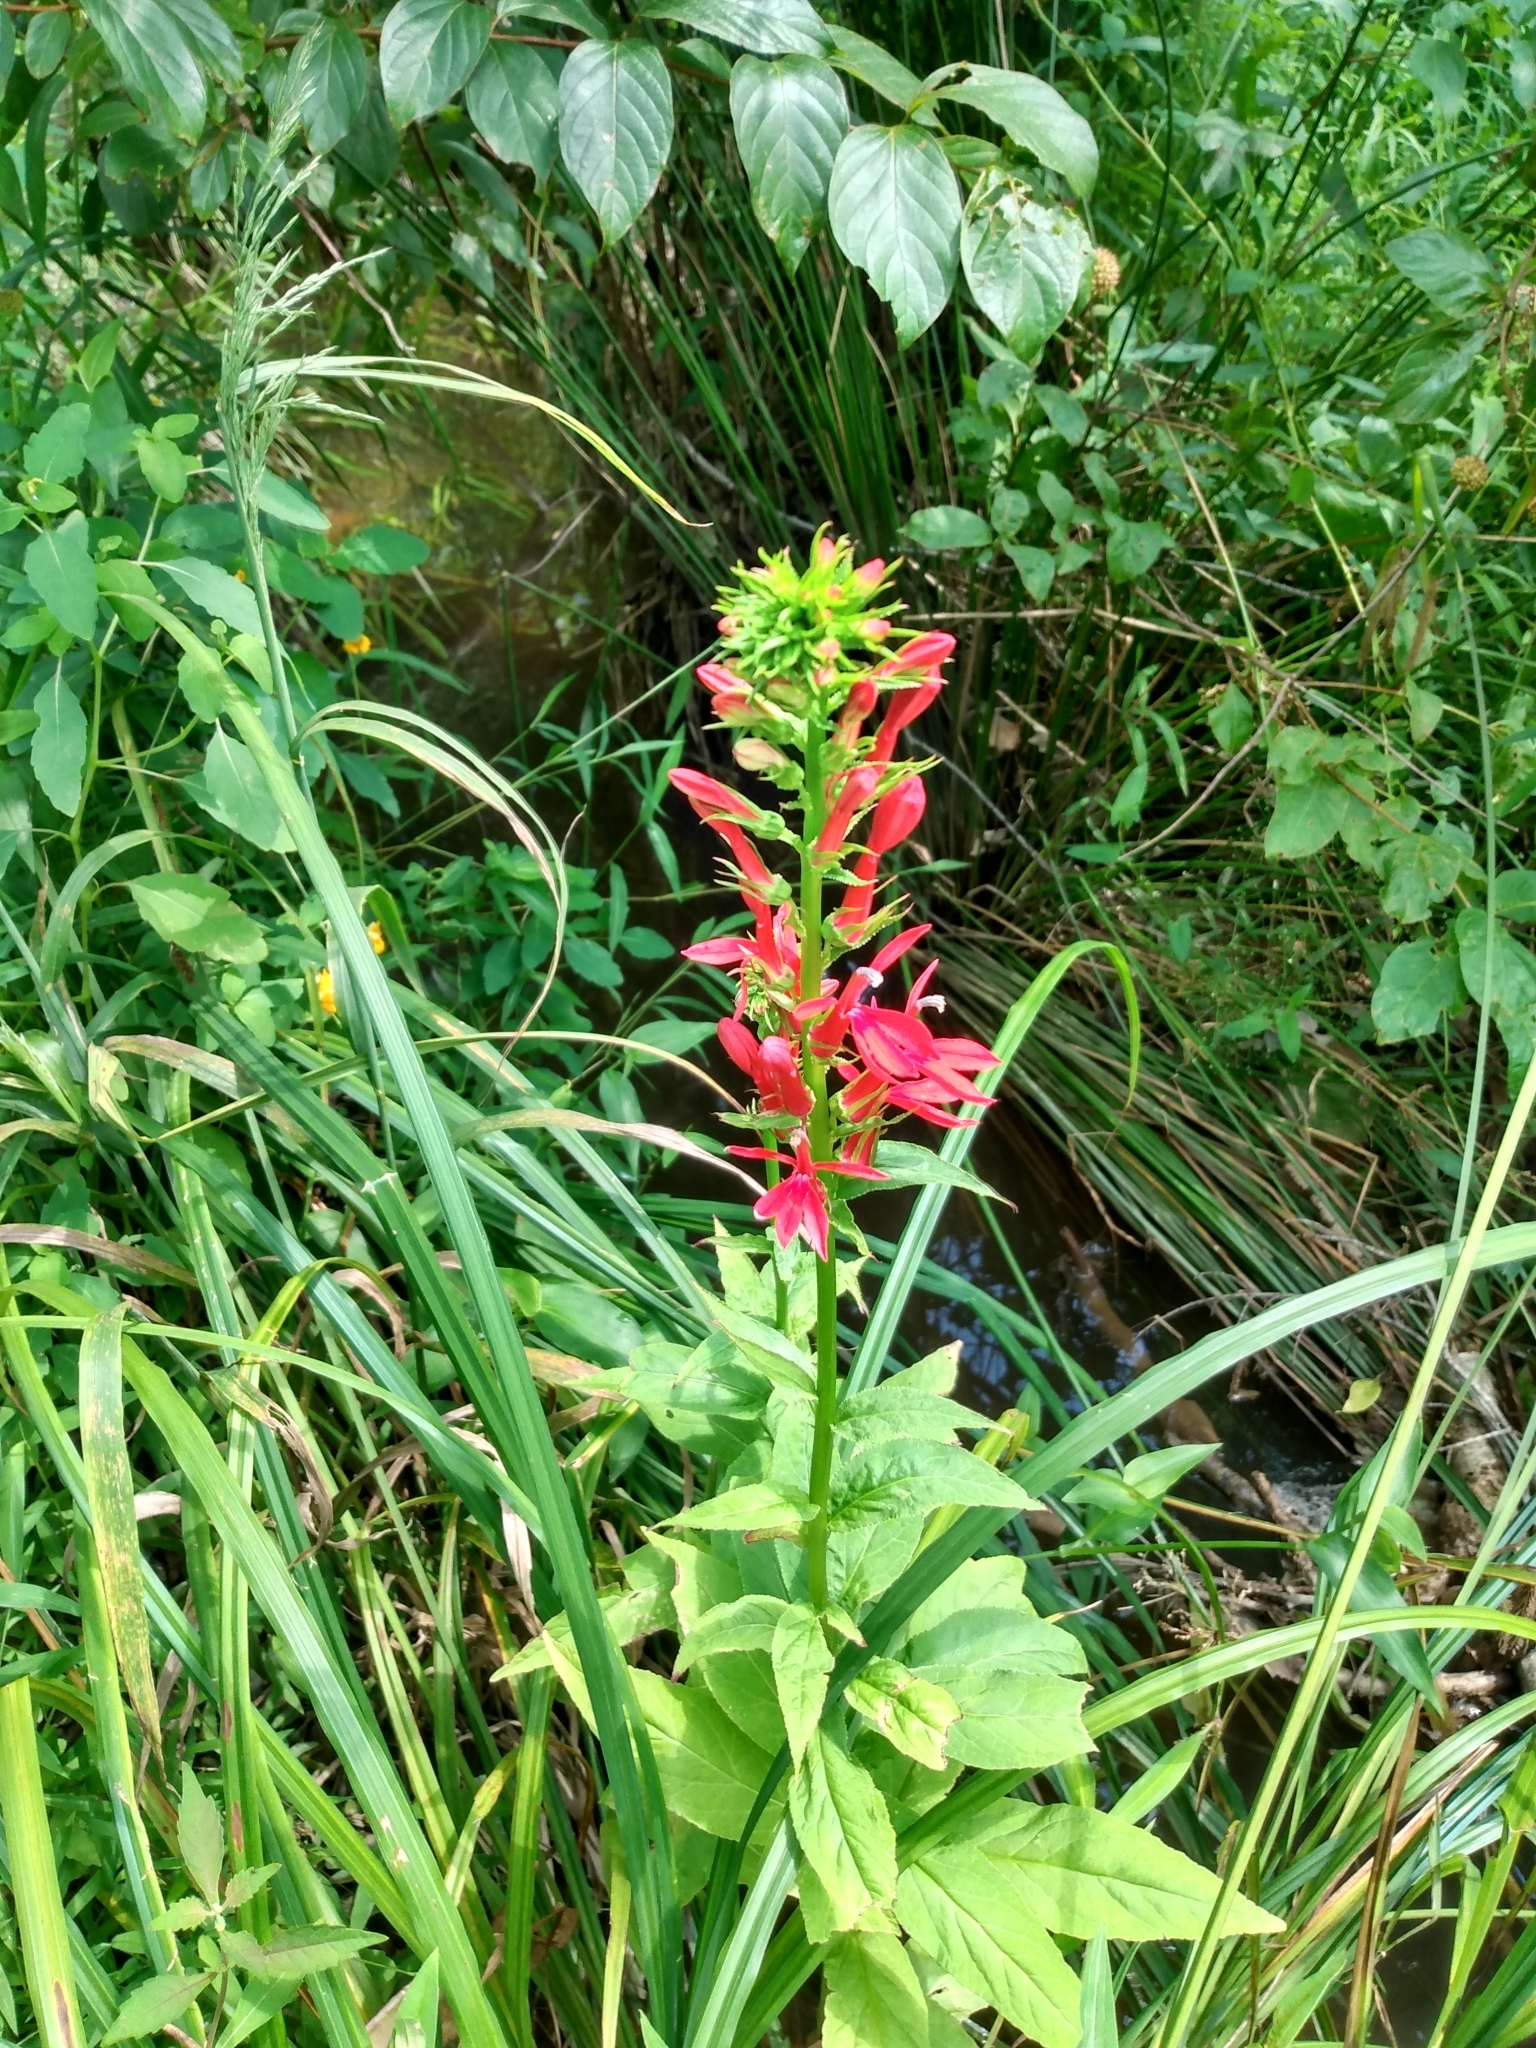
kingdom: Plantae
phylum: Tracheophyta
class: Magnoliopsida
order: Asterales
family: Campanulaceae
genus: Lobelia
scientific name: Lobelia cardinalis
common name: Cardinal flower
